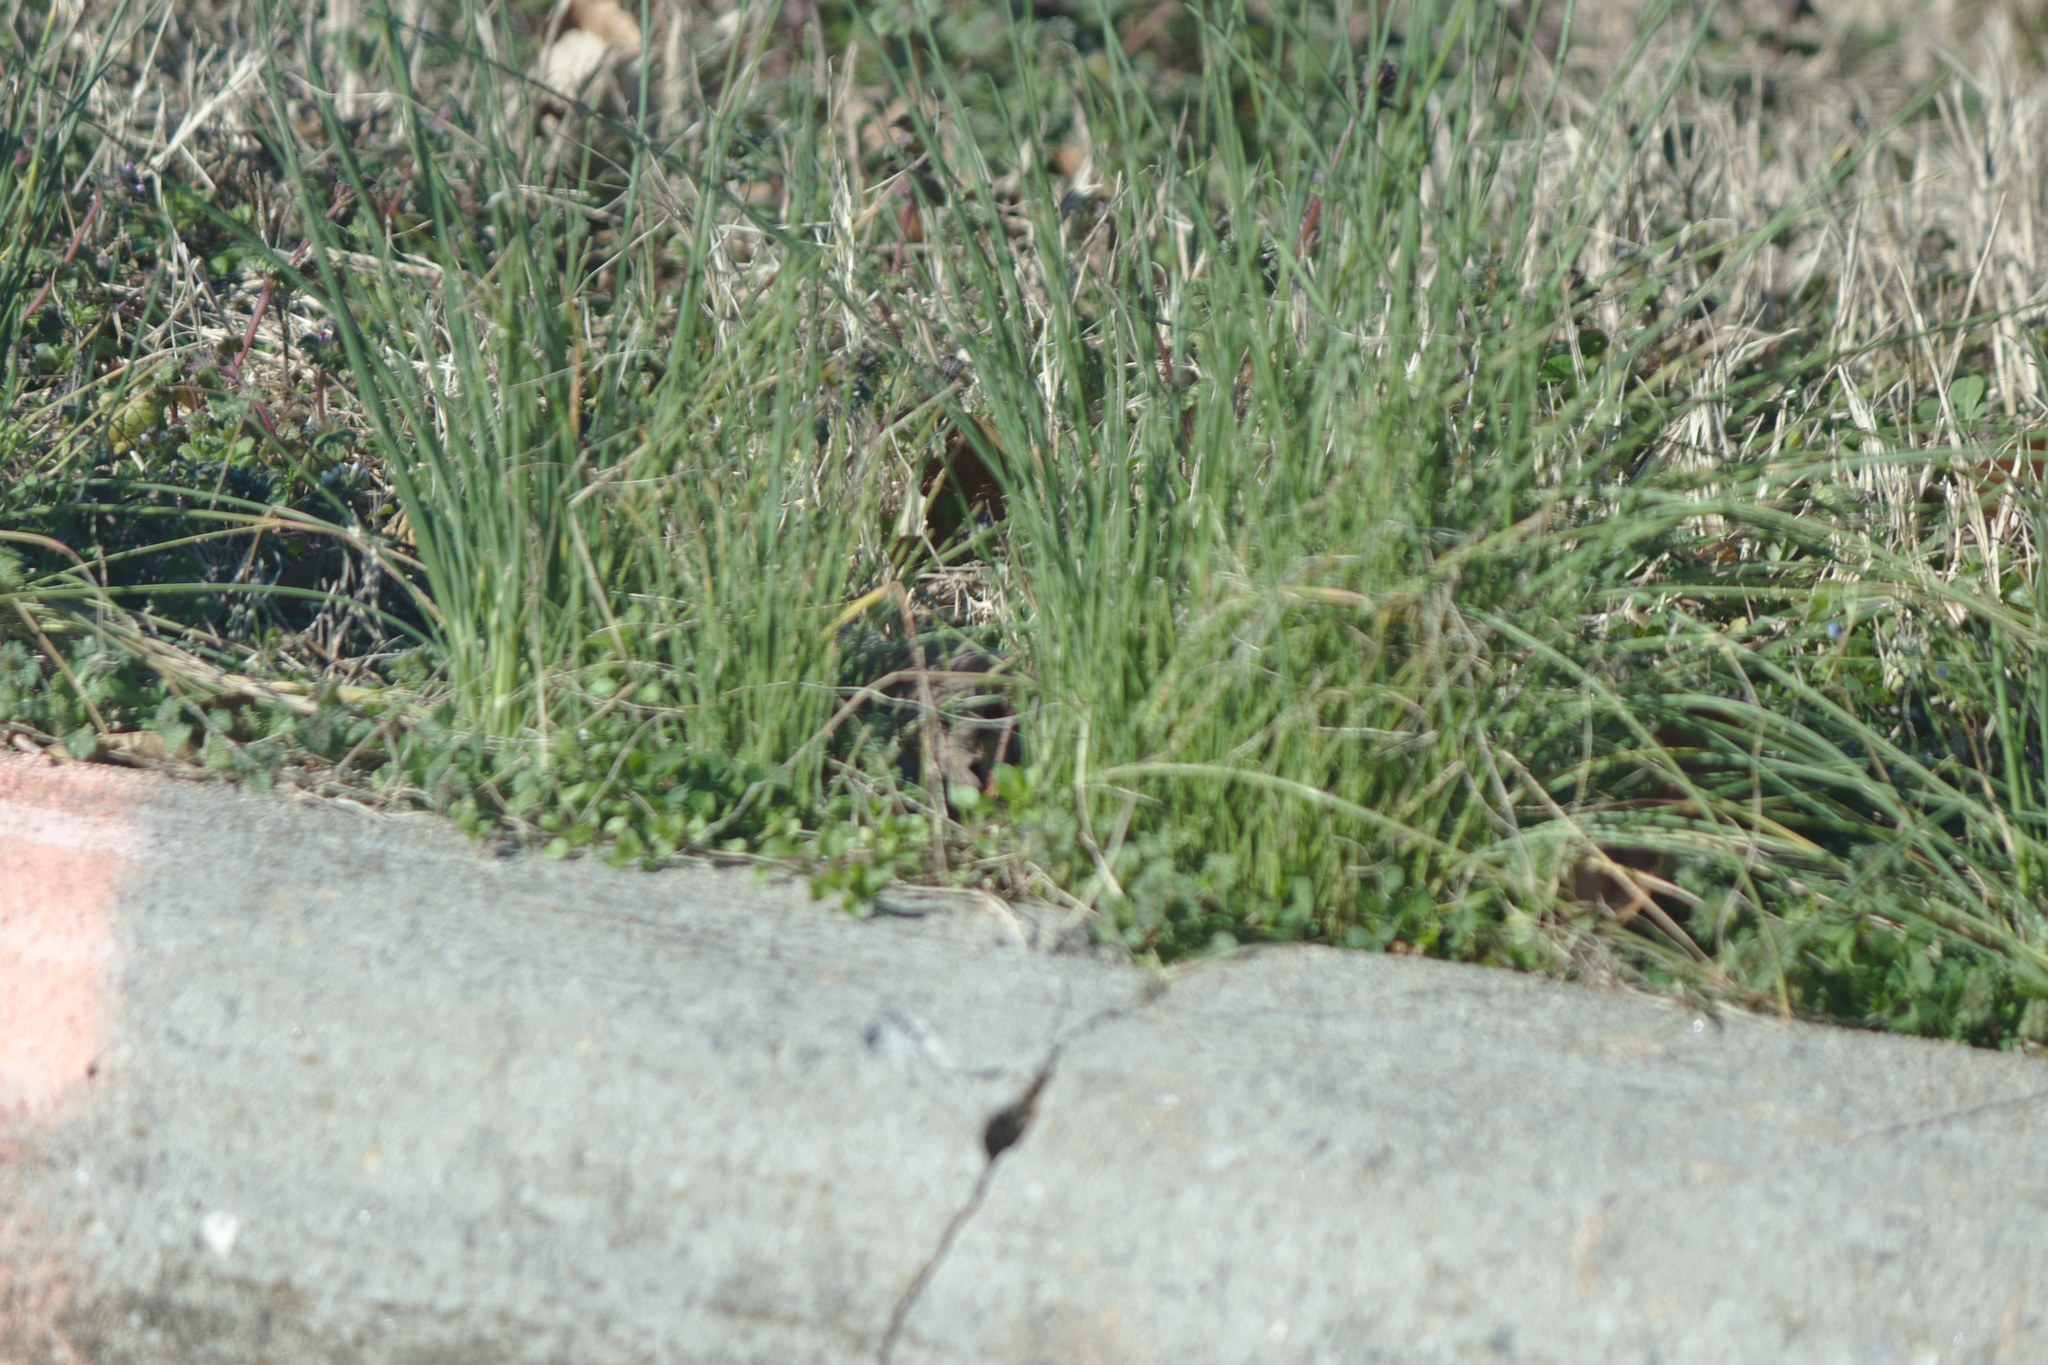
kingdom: Plantae
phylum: Tracheophyta
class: Liliopsida
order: Asparagales
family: Amaryllidaceae
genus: Allium
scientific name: Allium vineale
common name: Crow garlic
